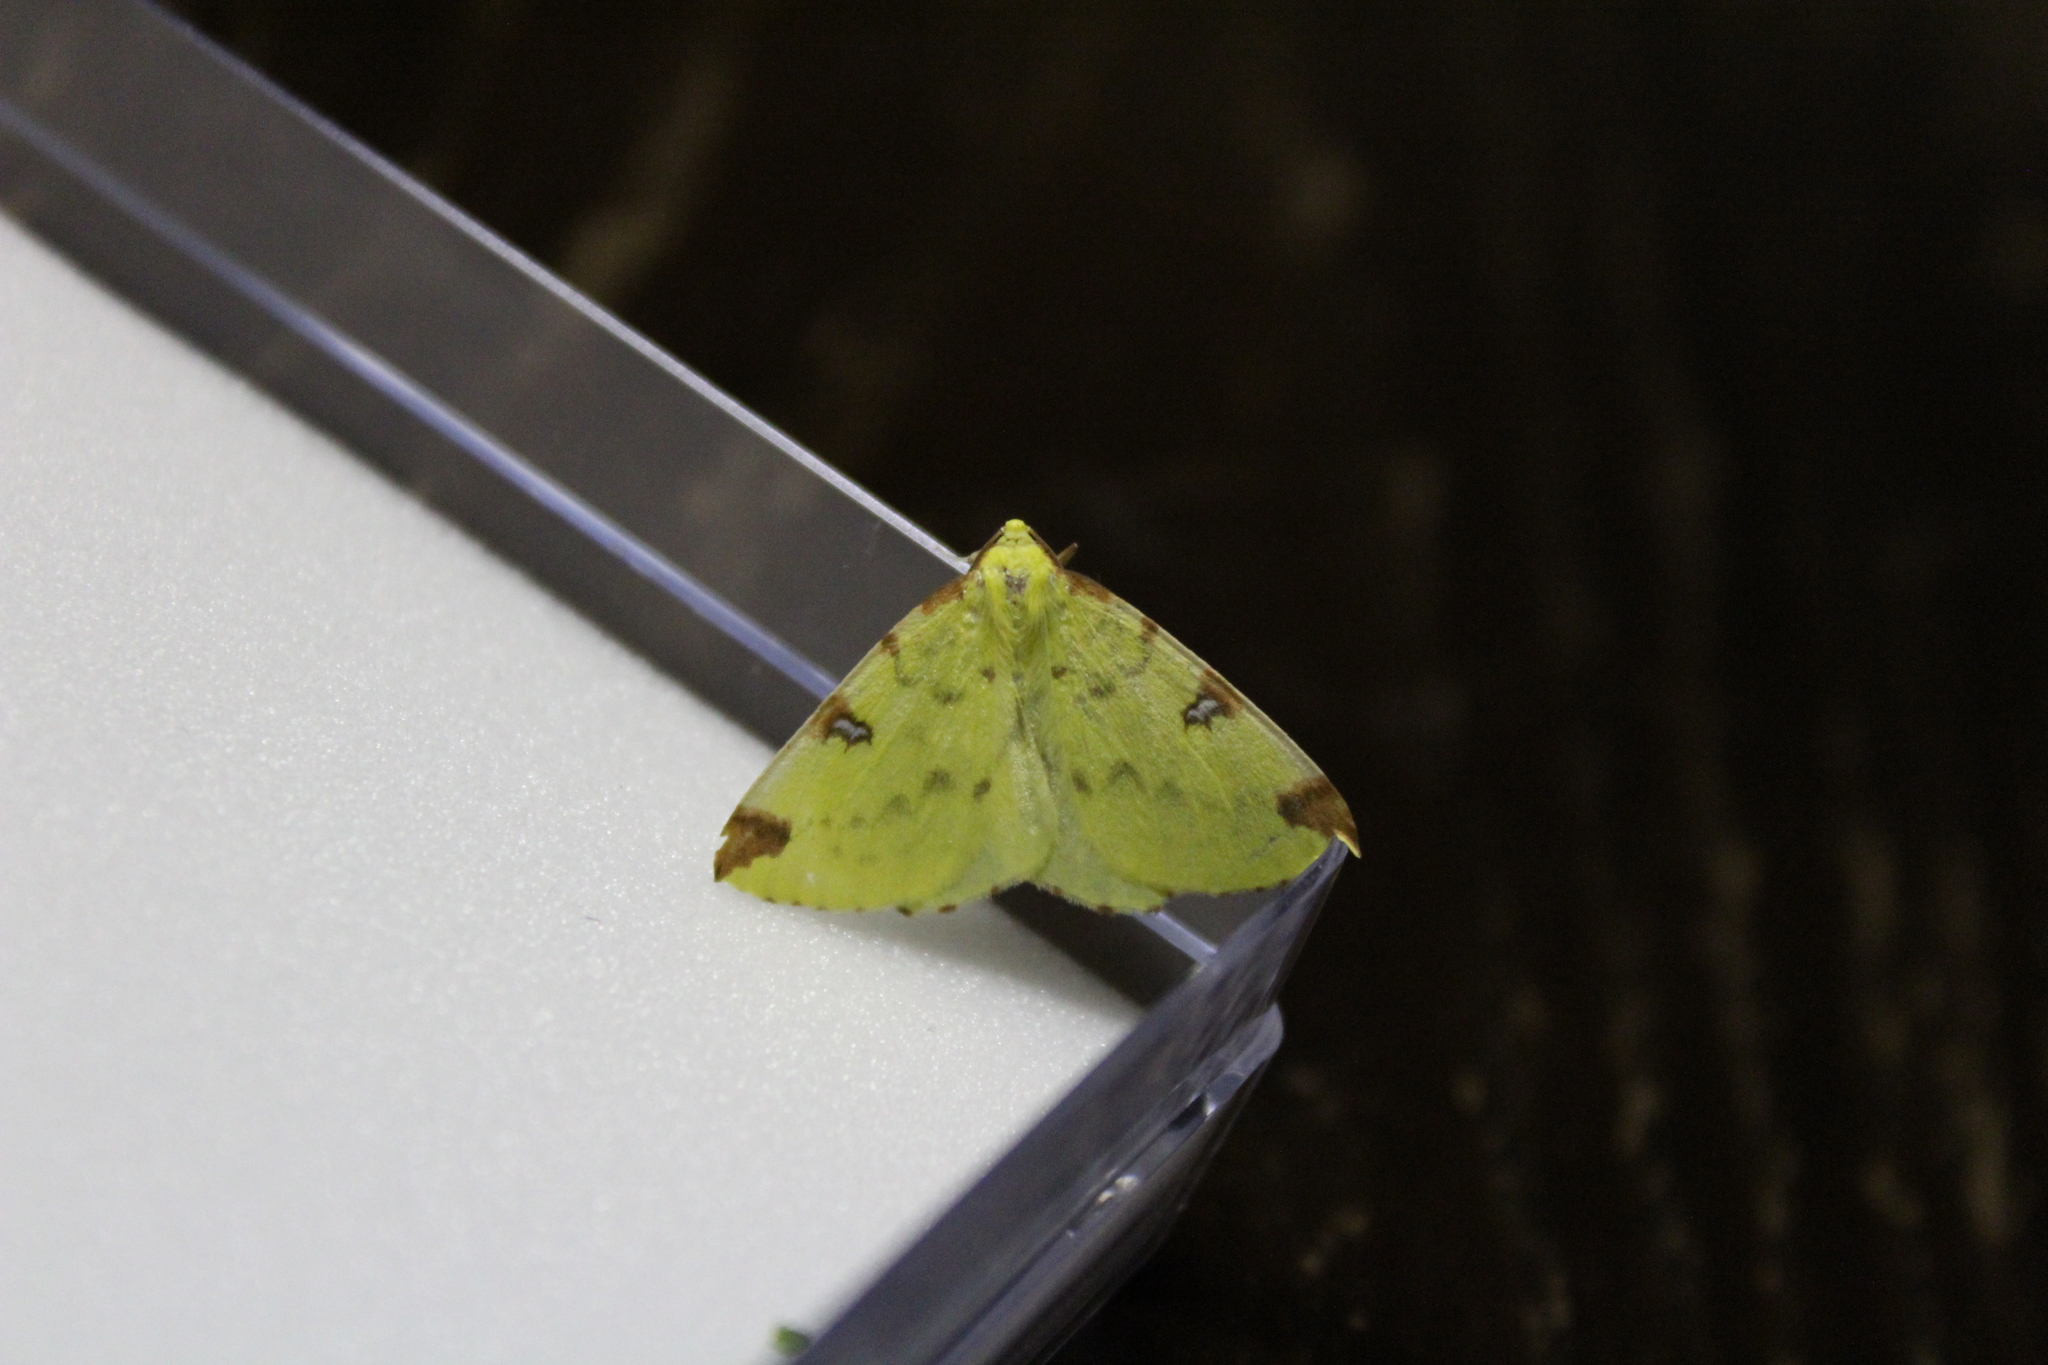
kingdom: Animalia
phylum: Arthropoda
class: Insecta
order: Lepidoptera
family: Geometridae
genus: Opisthograptis
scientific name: Opisthograptis luteolata
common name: Brimstone moth
